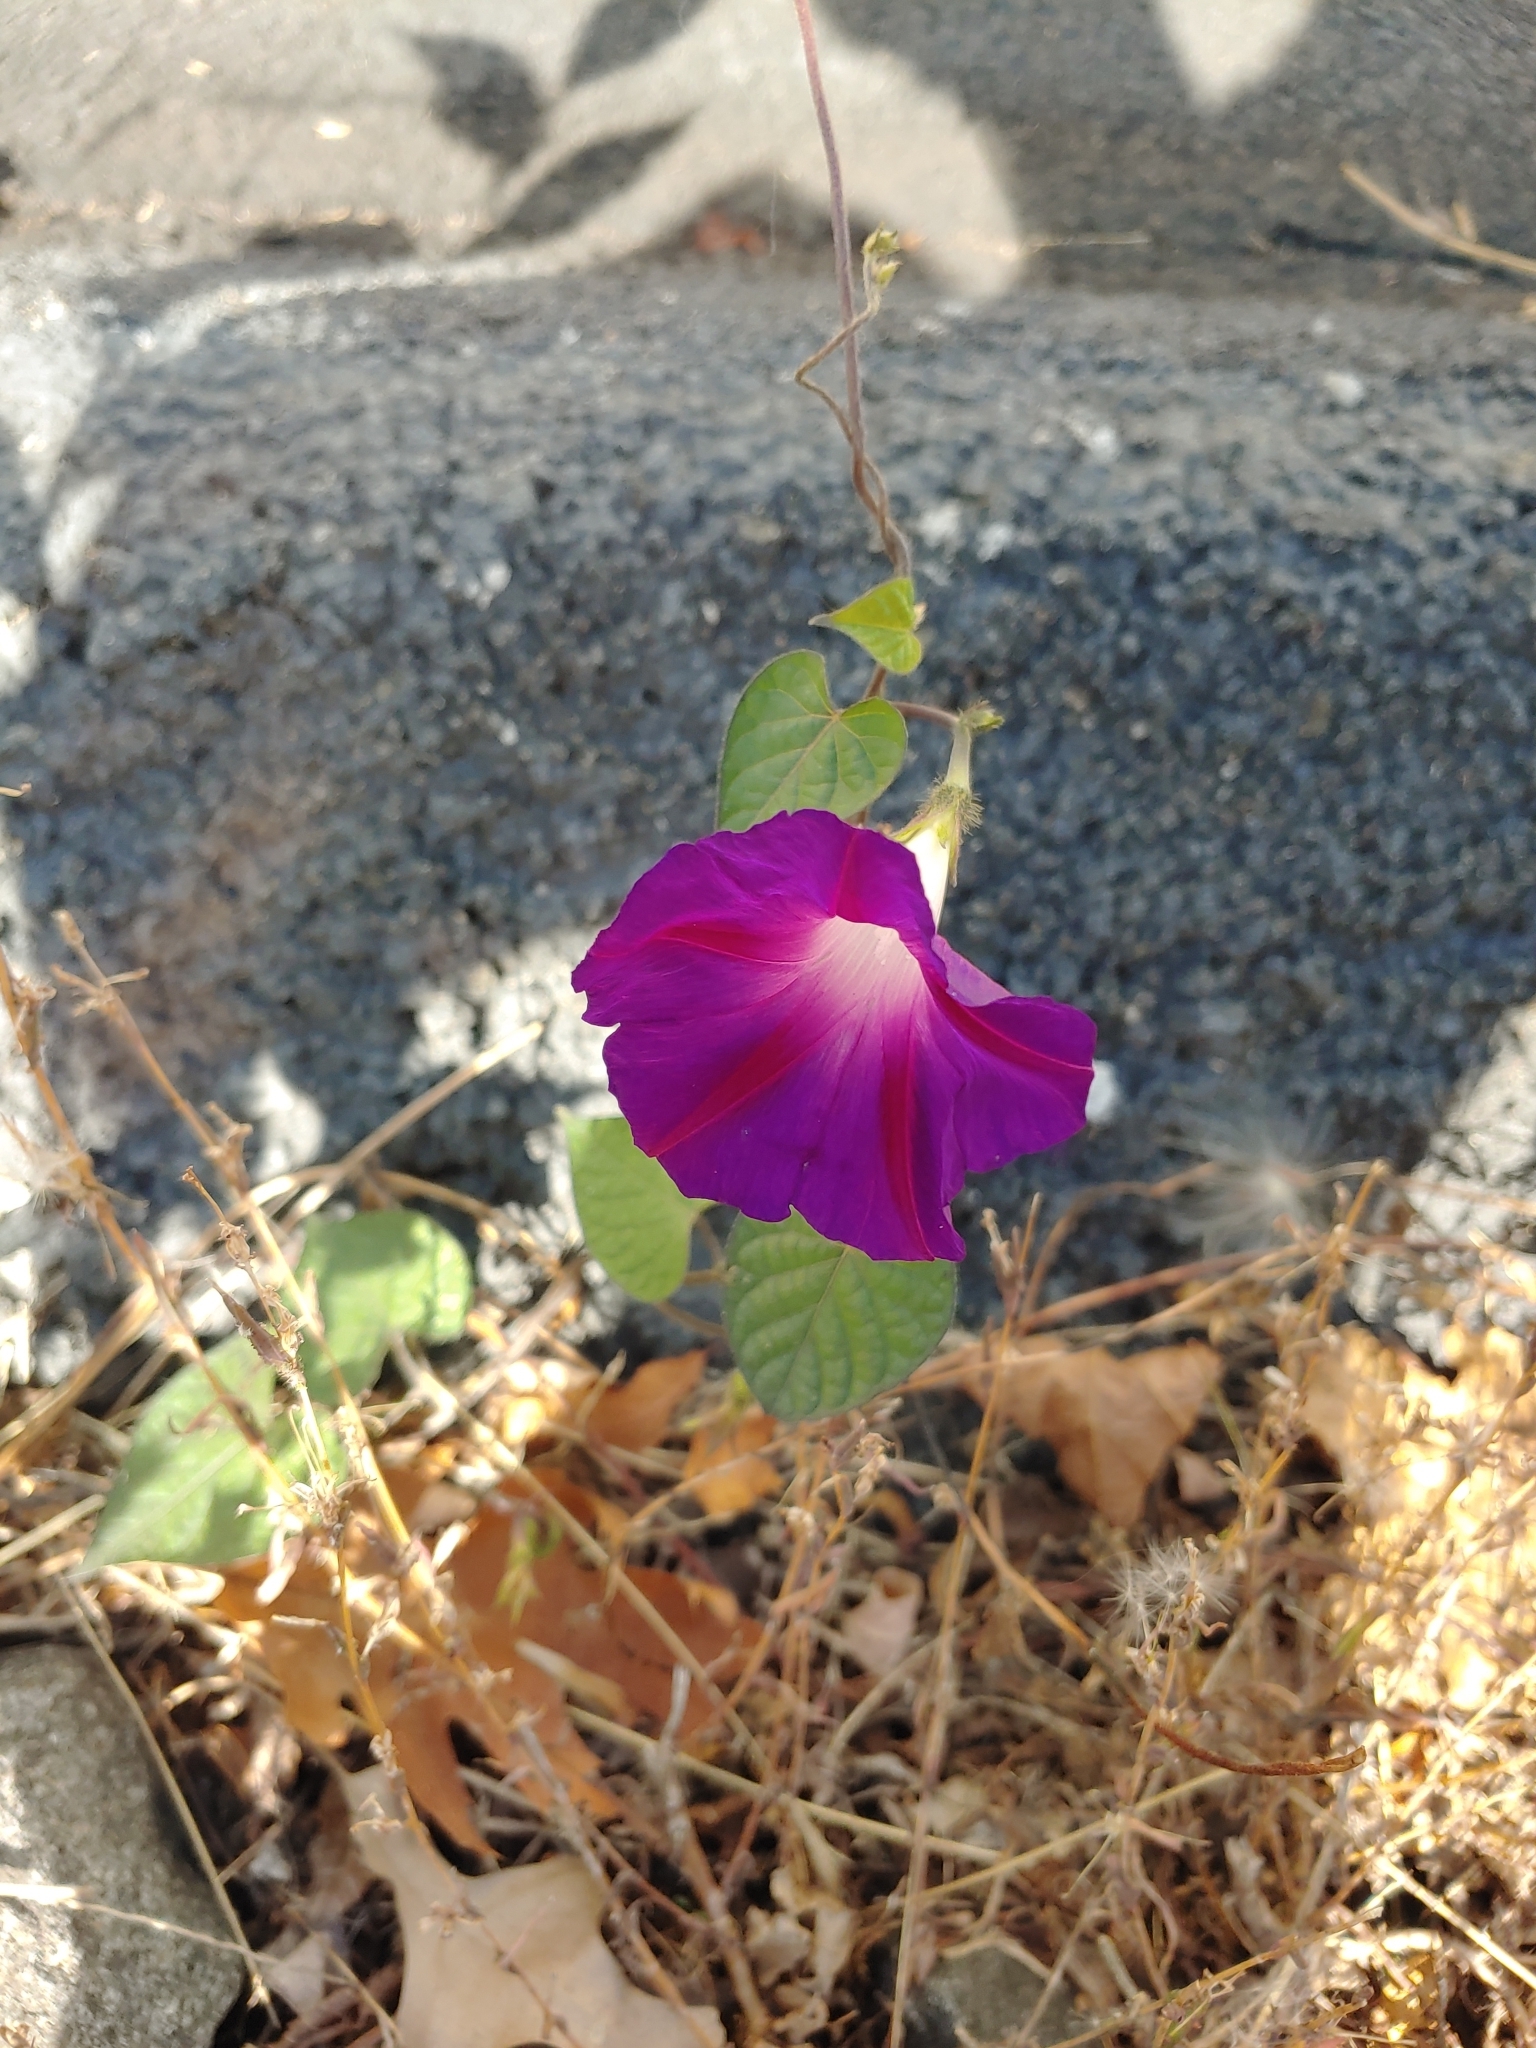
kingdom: Plantae
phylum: Tracheophyta
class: Magnoliopsida
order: Solanales
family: Convolvulaceae
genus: Ipomoea
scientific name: Ipomoea purpurea
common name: Common morning-glory
